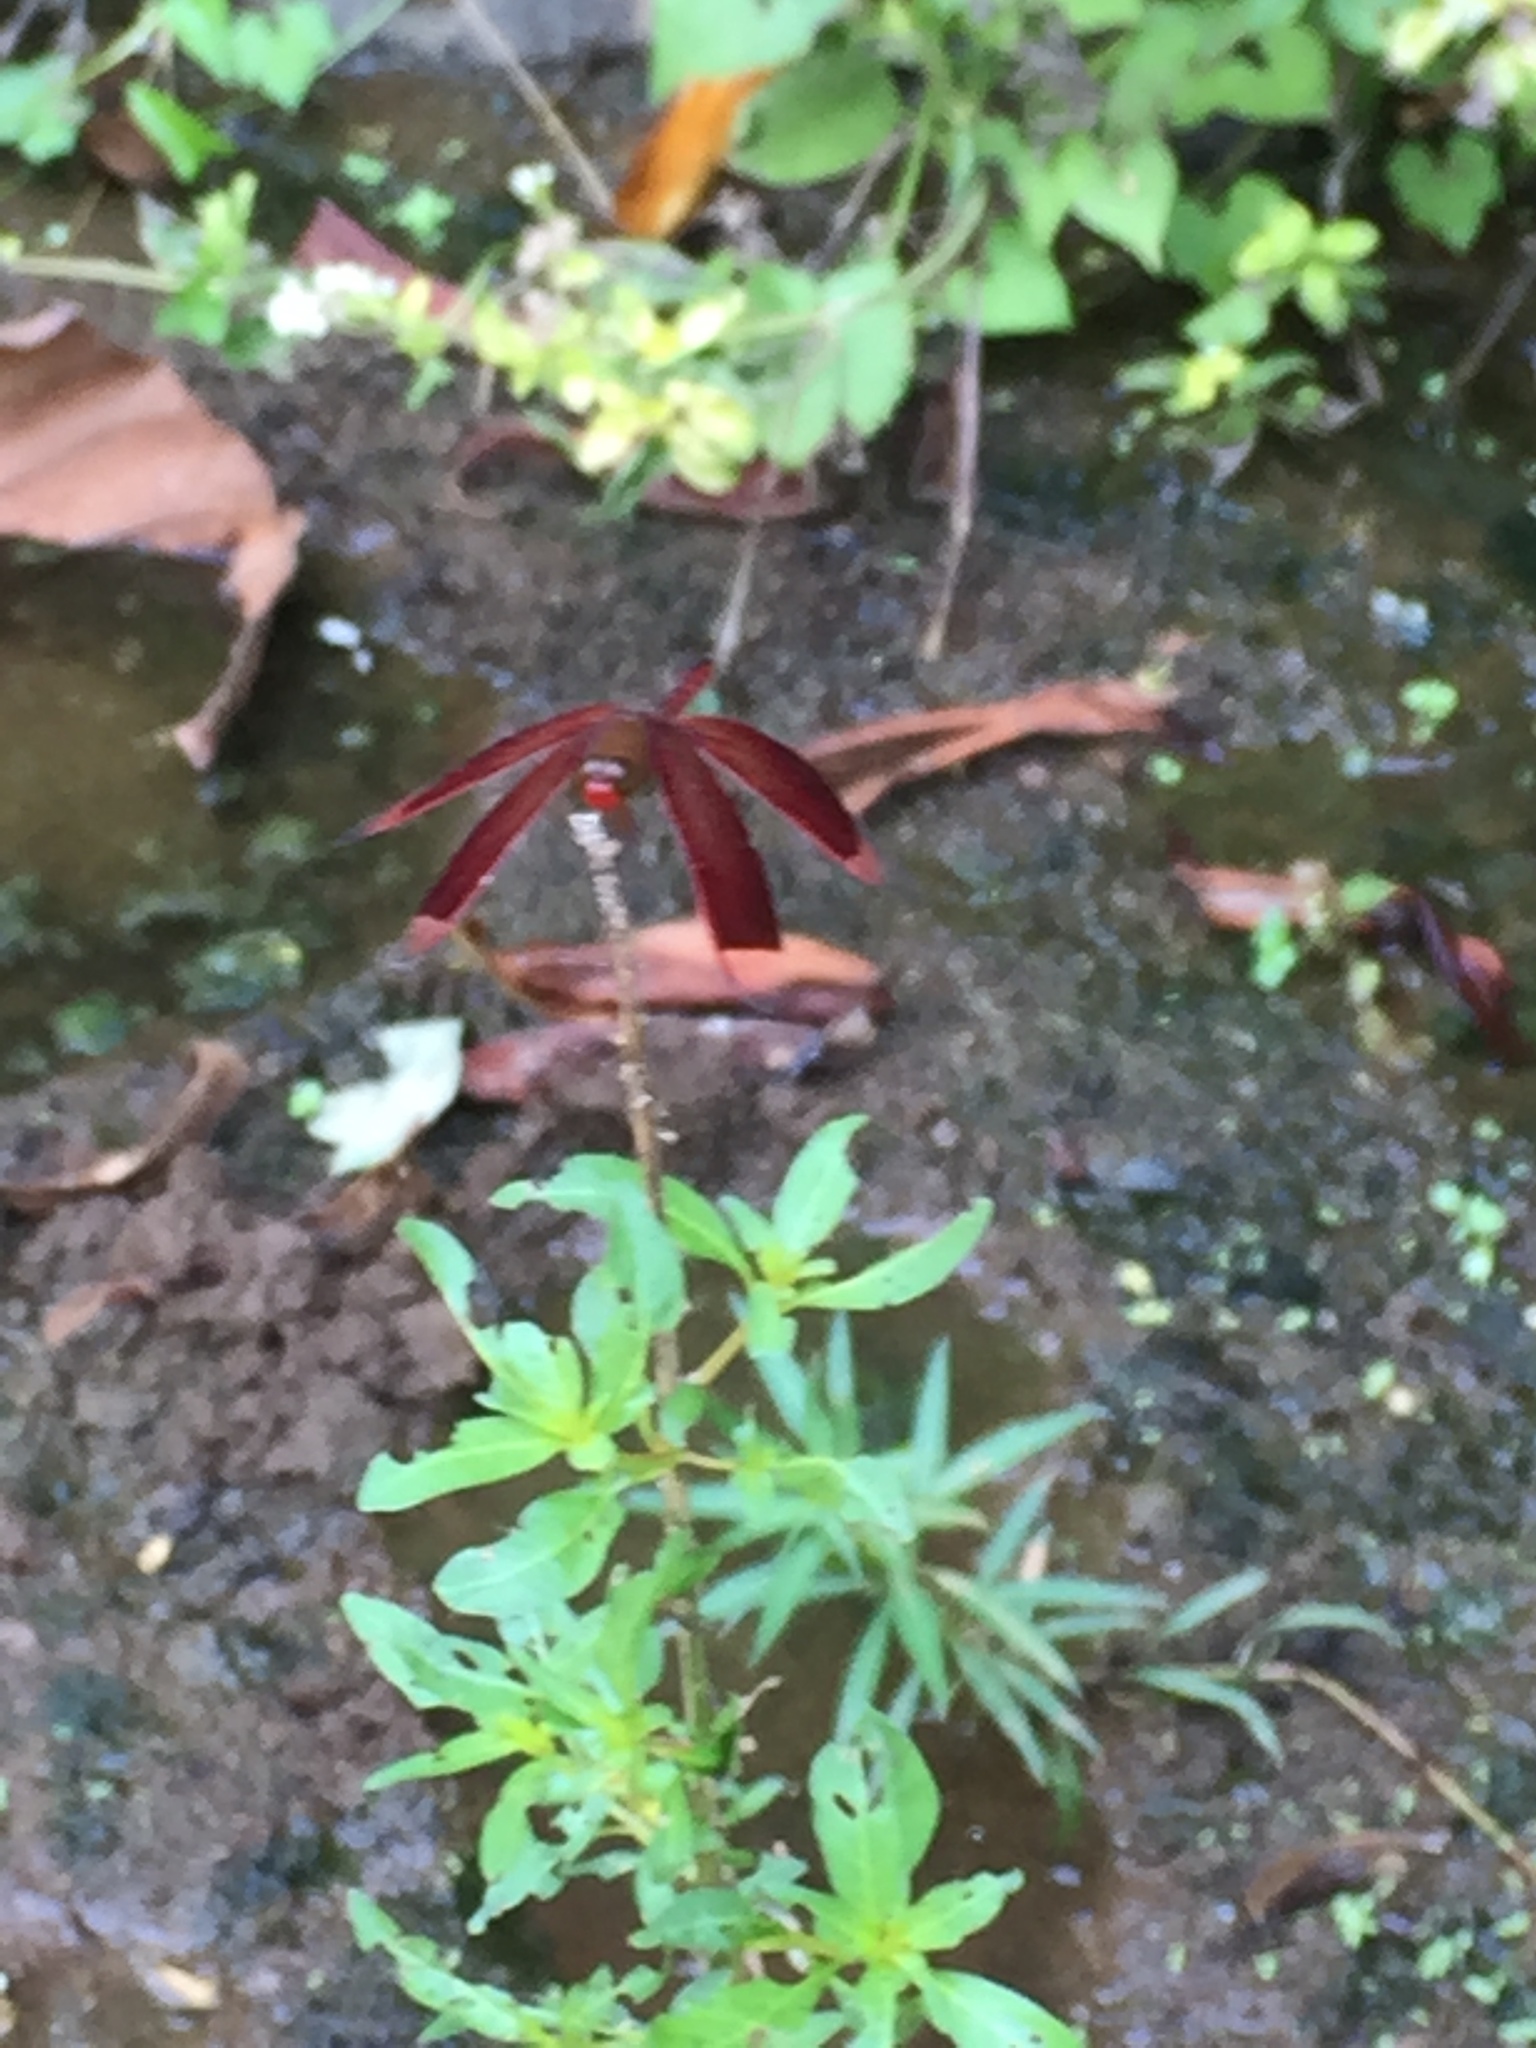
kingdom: Animalia
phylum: Arthropoda
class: Insecta
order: Odonata
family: Libellulidae
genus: Neurothemis
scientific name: Neurothemis ramburii
